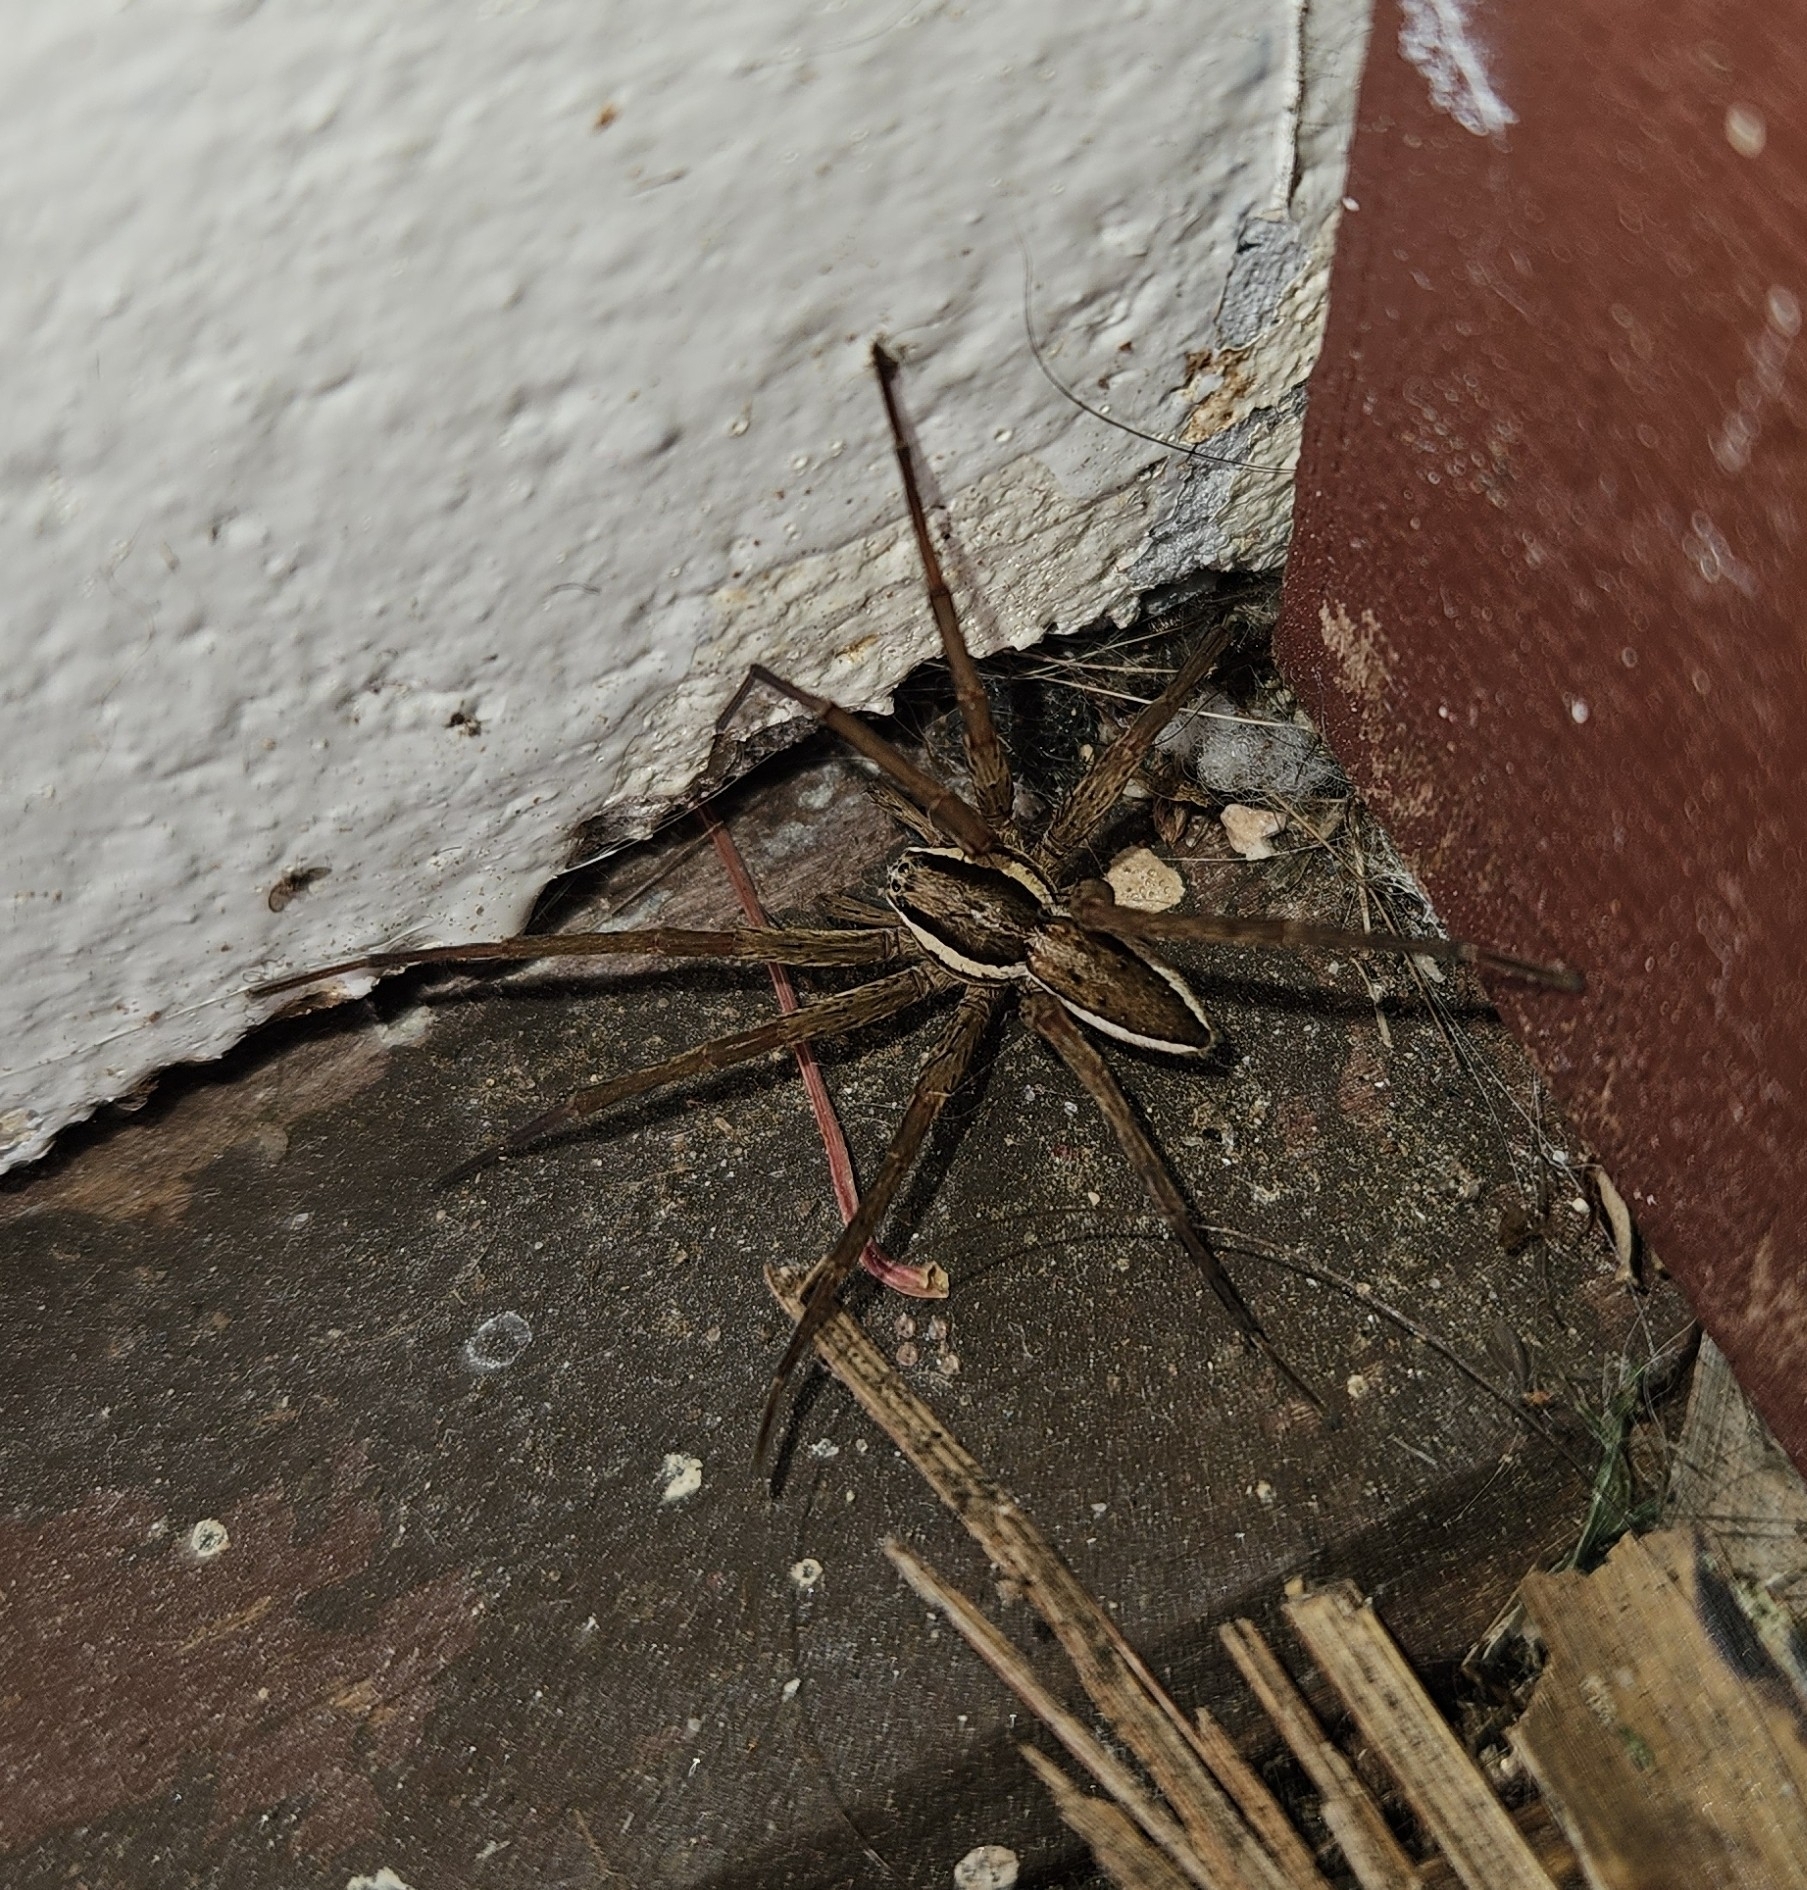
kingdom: Animalia
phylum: Arthropoda
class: Arachnida
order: Araneae
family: Pisauridae
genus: Dolomedes
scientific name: Dolomedes minor
